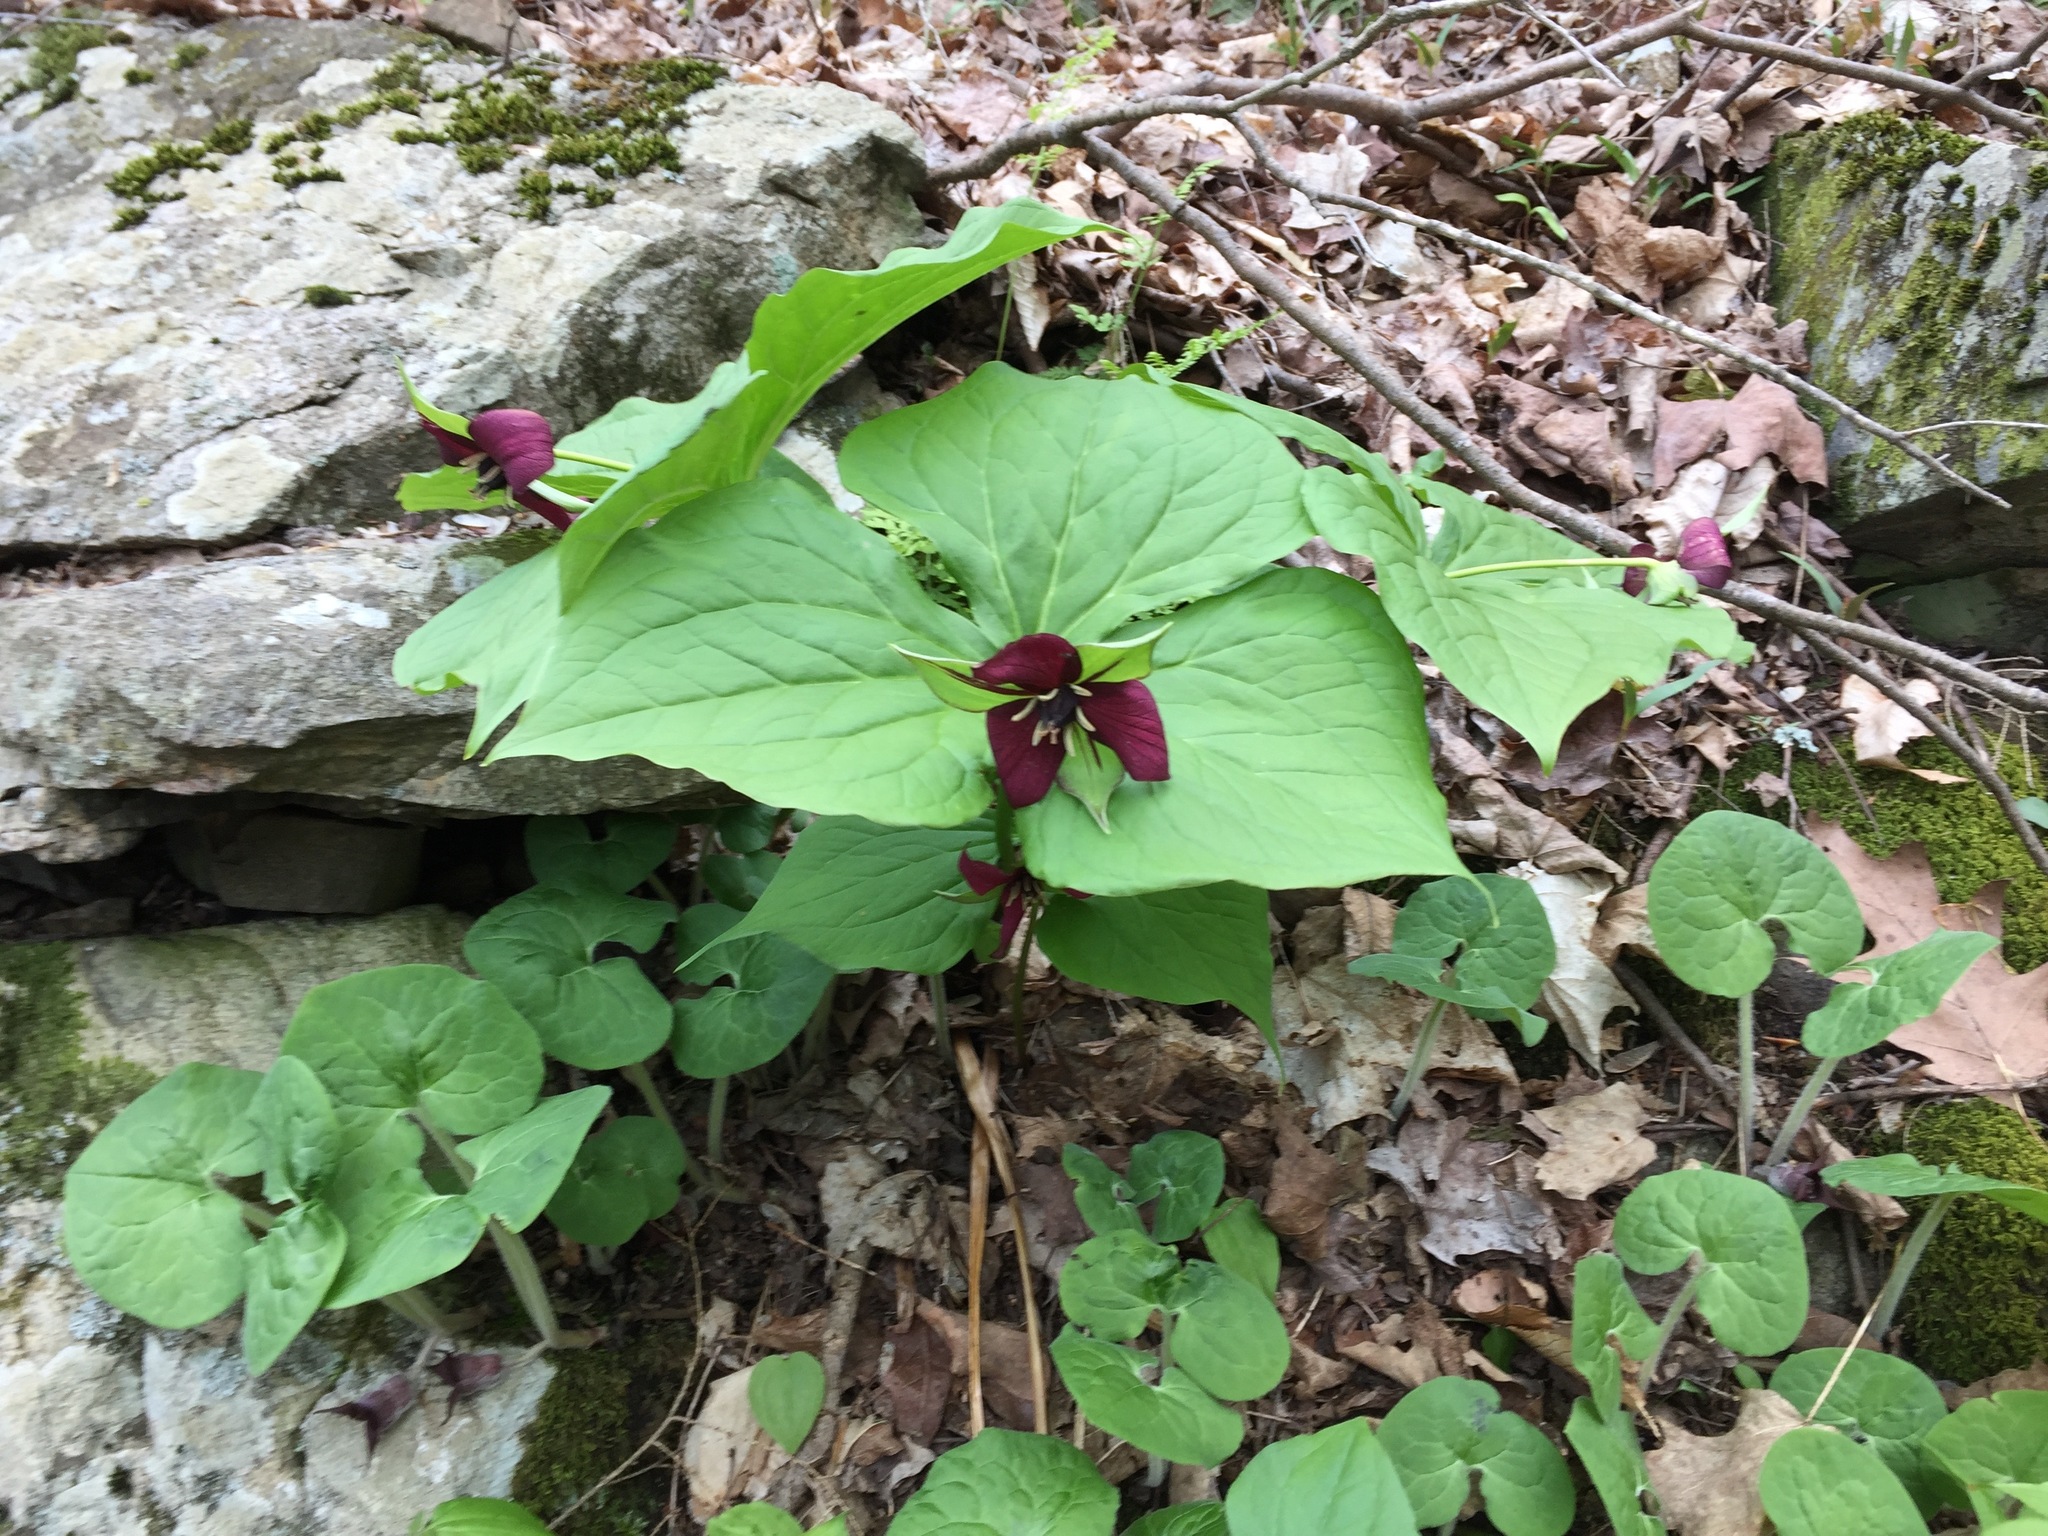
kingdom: Plantae
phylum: Tracheophyta
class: Liliopsida
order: Liliales
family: Melanthiaceae
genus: Trillium
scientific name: Trillium erectum
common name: Purple trillium
